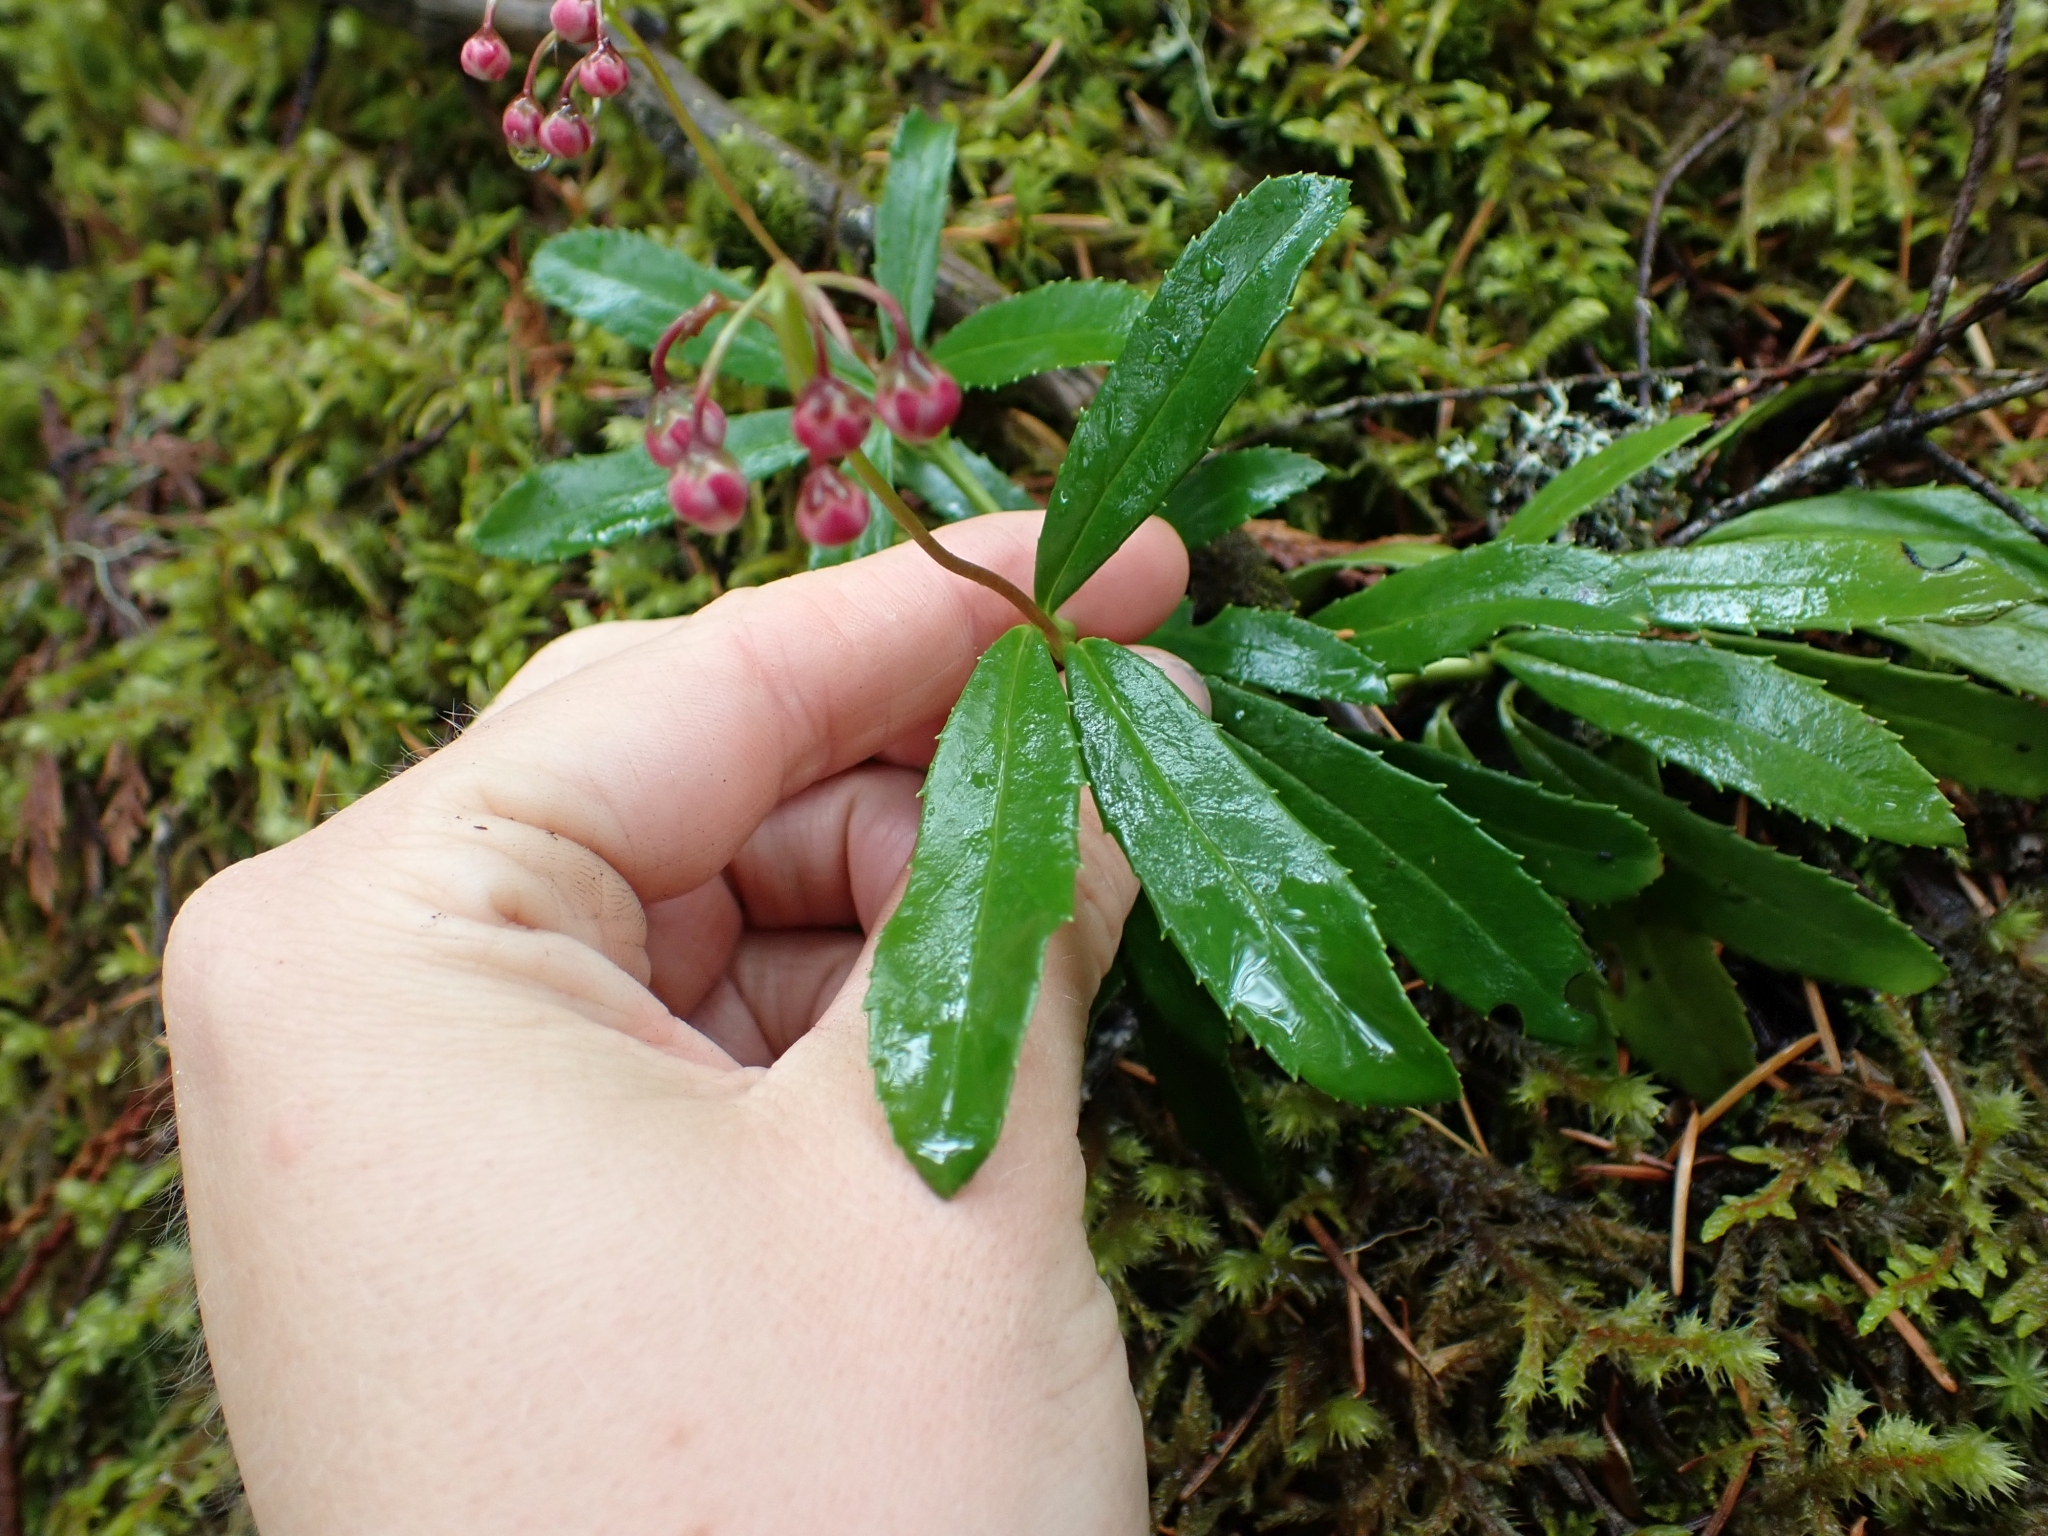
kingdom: Plantae
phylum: Tracheophyta
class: Magnoliopsida
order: Ericales
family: Ericaceae
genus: Chimaphila
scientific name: Chimaphila umbellata
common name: Pipsissewa
